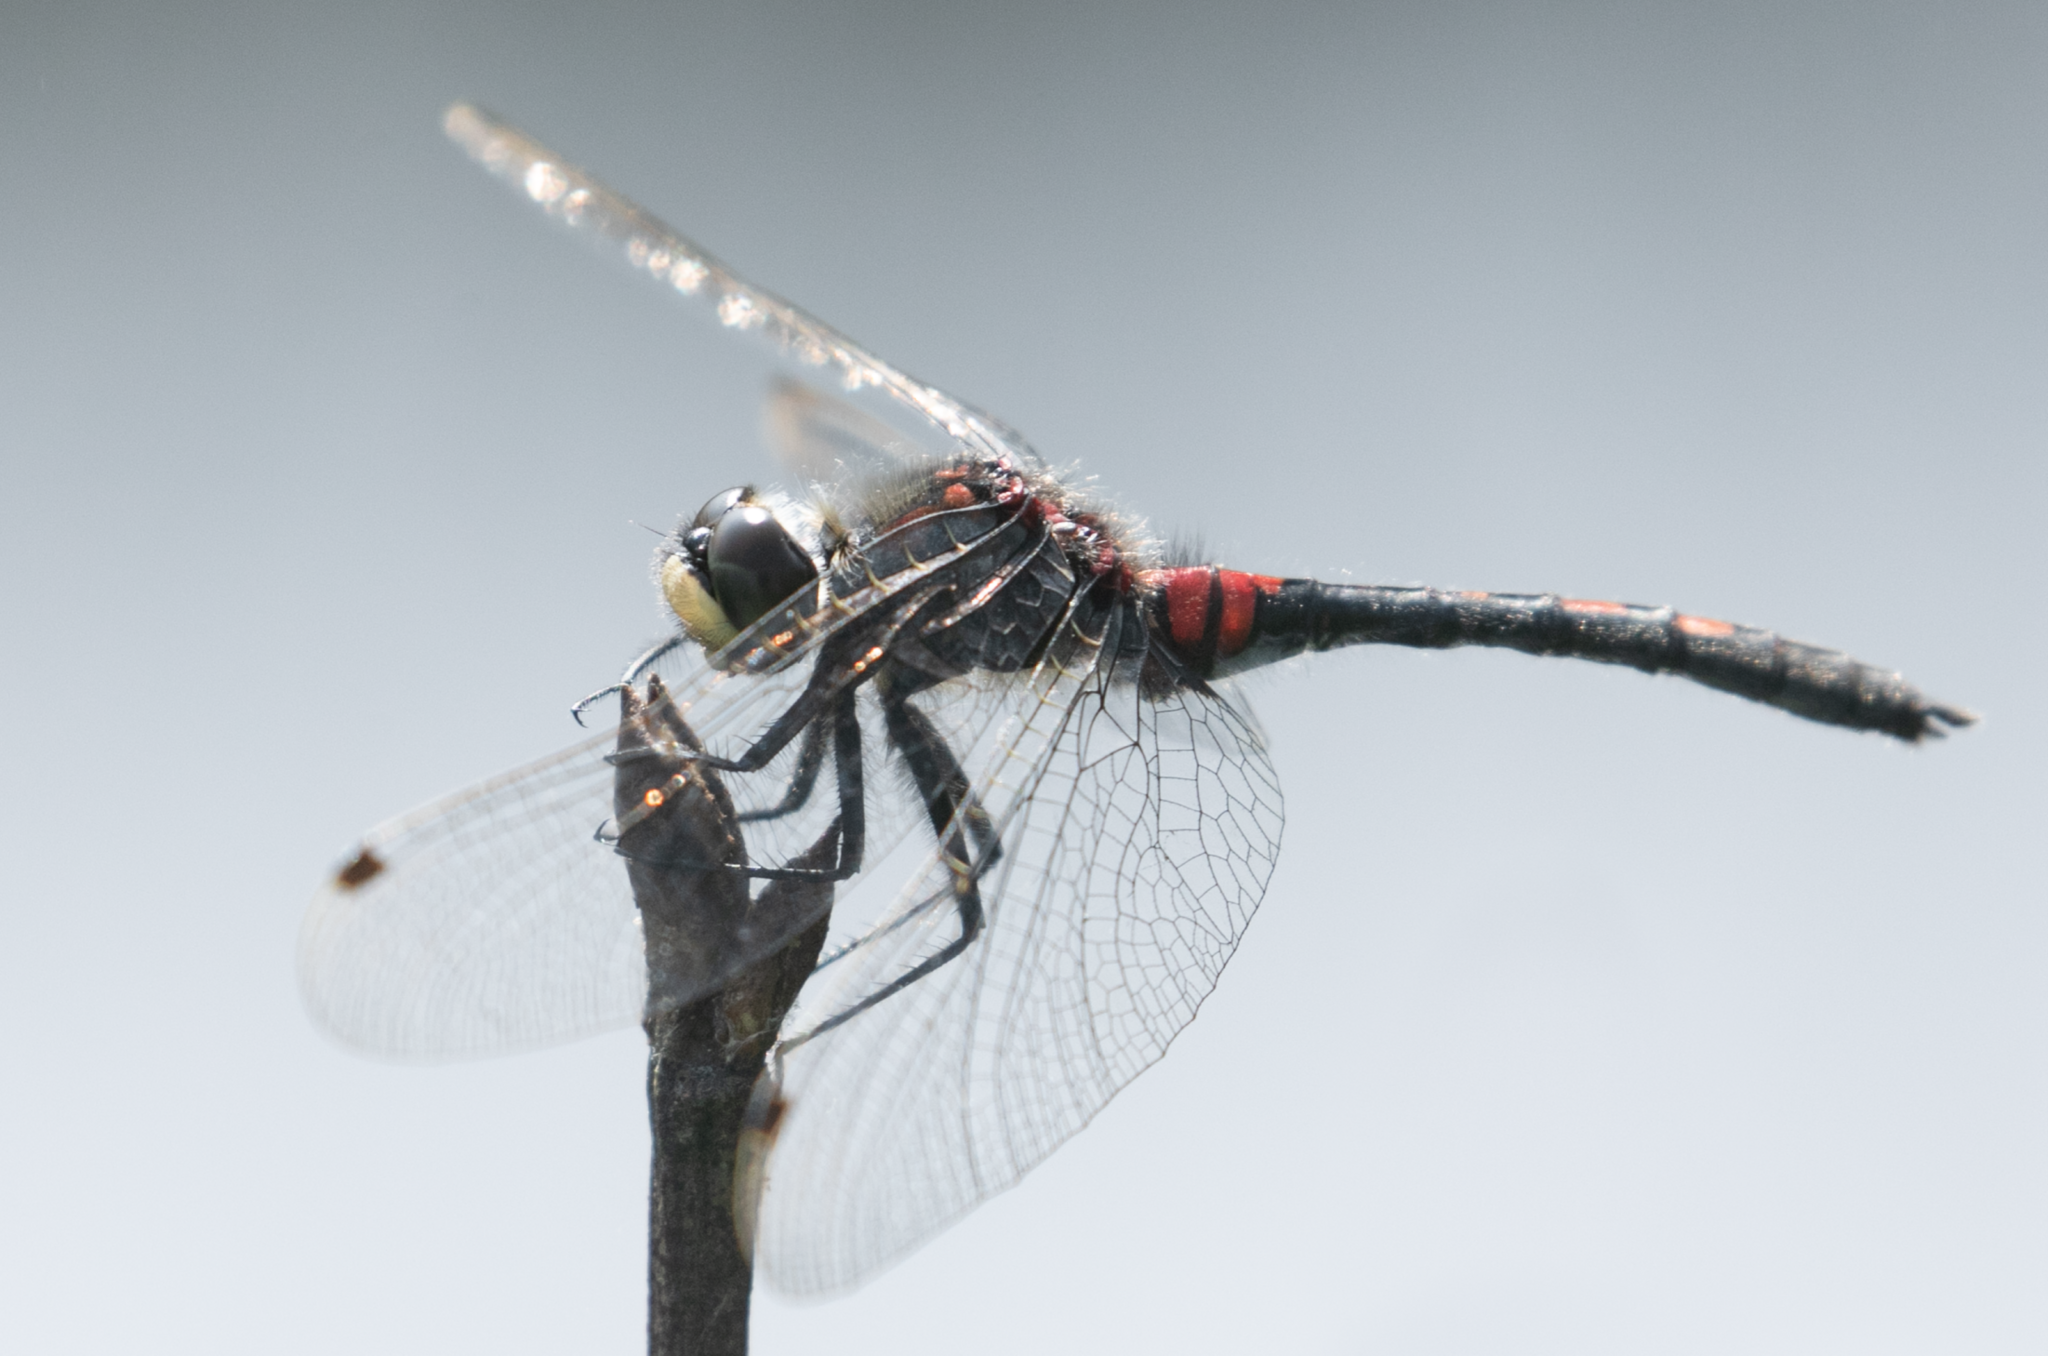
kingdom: Animalia
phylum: Arthropoda
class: Insecta
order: Odonata
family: Libellulidae
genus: Leucorrhinia
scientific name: Leucorrhinia dubia
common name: White-faced darter
